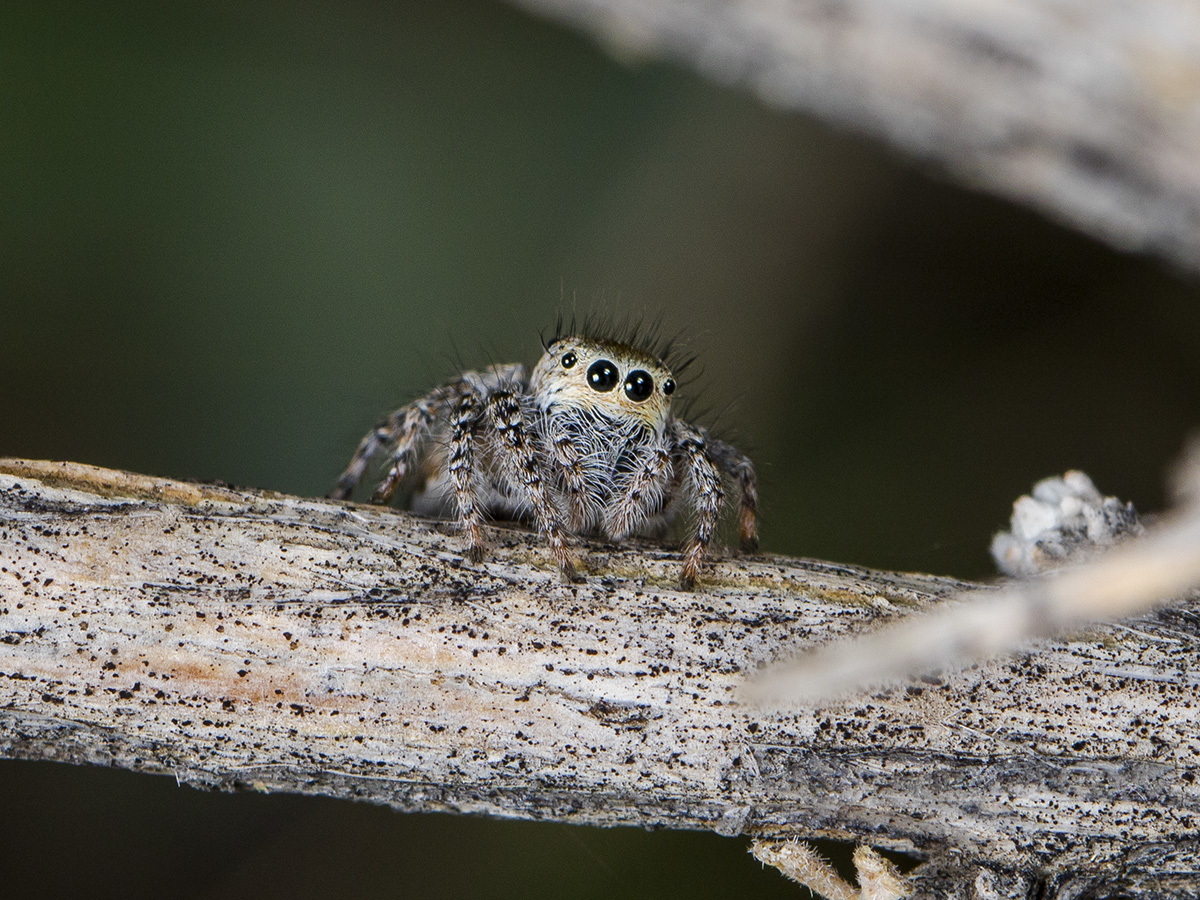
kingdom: Animalia
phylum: Arthropoda
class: Arachnida
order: Araneae
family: Salticidae
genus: Mogrus
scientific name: Mogrus larisae
